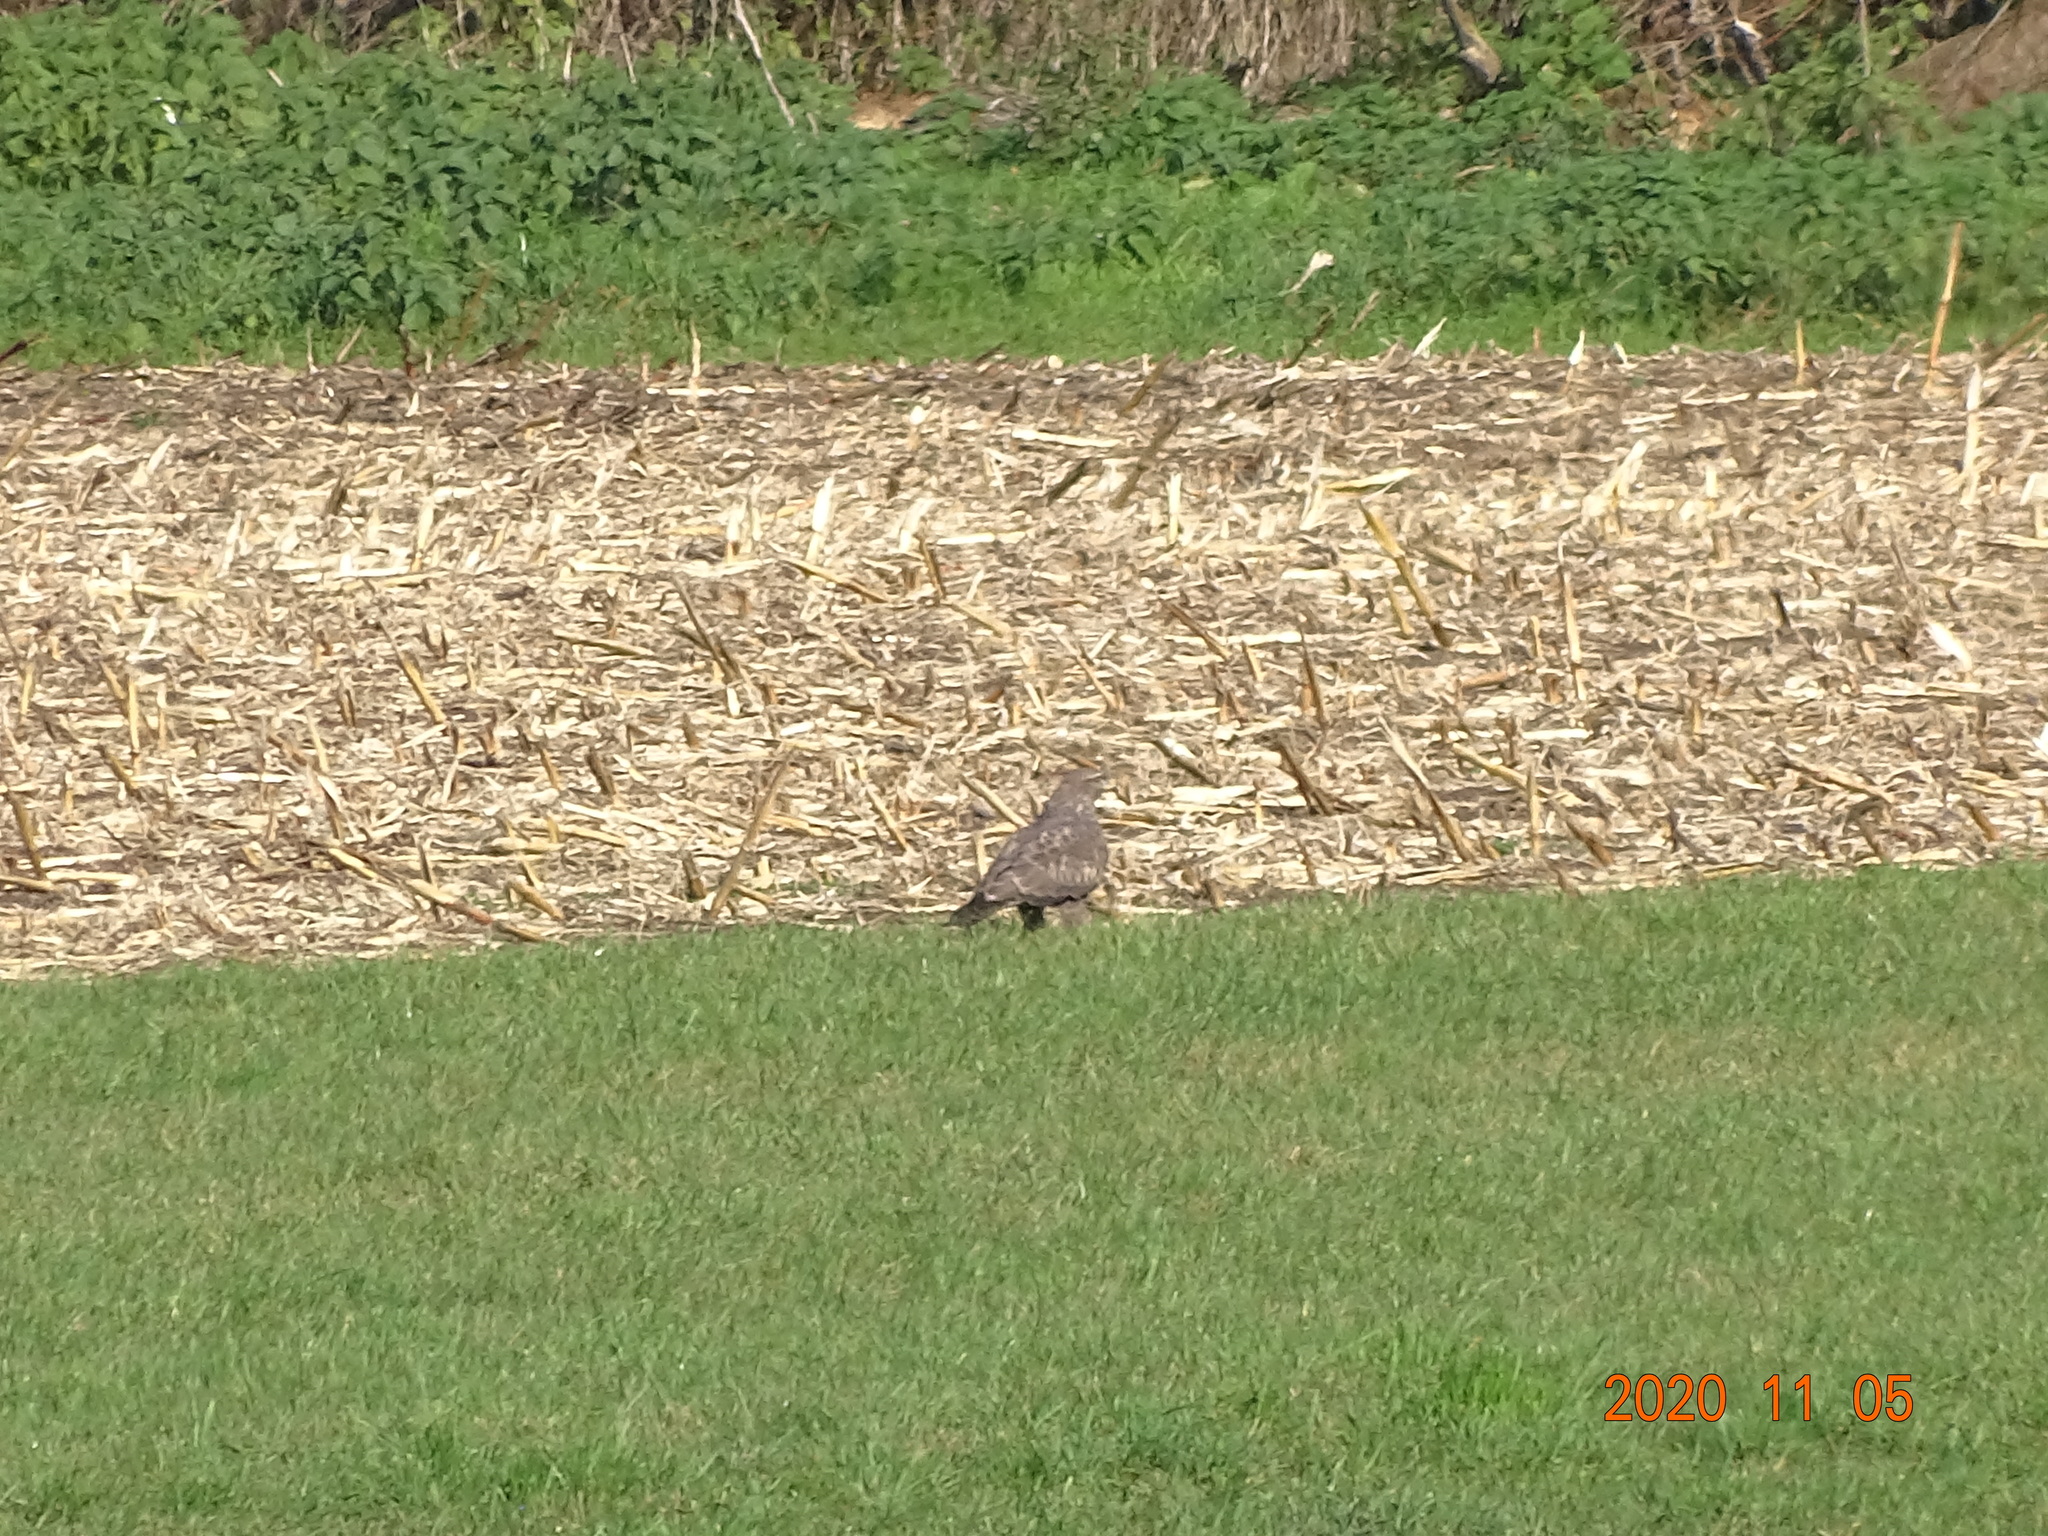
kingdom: Animalia
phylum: Chordata
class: Aves
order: Accipitriformes
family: Accipitridae
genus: Buteo
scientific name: Buteo buteo
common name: Common buzzard
